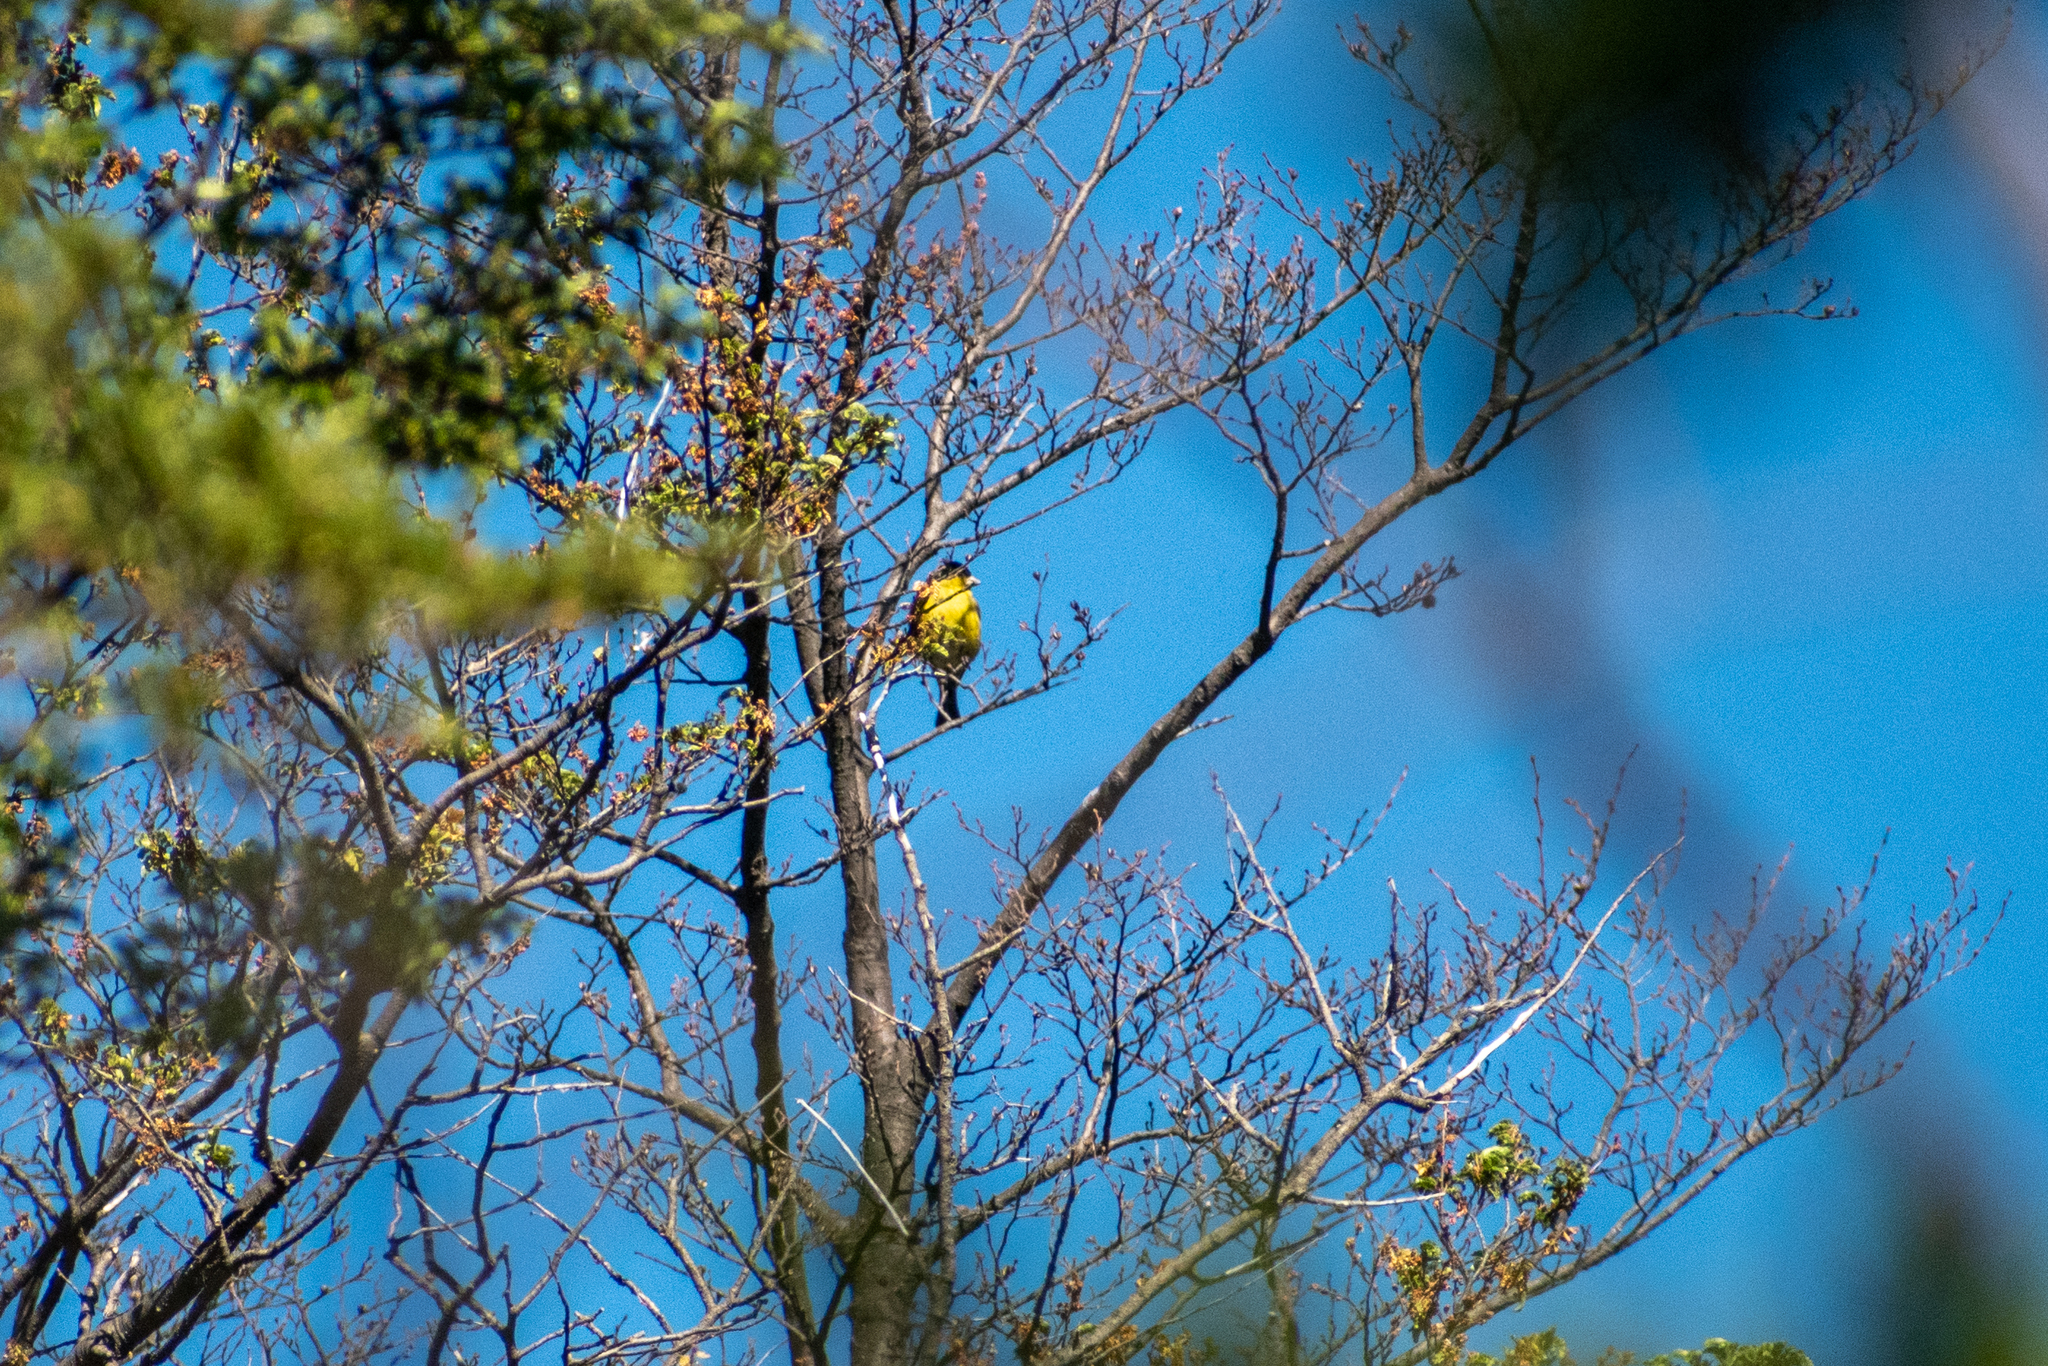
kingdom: Animalia
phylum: Chordata
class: Aves
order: Passeriformes
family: Fringillidae
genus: Spinus
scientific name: Spinus barbatus
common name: Black-chinned siskin
